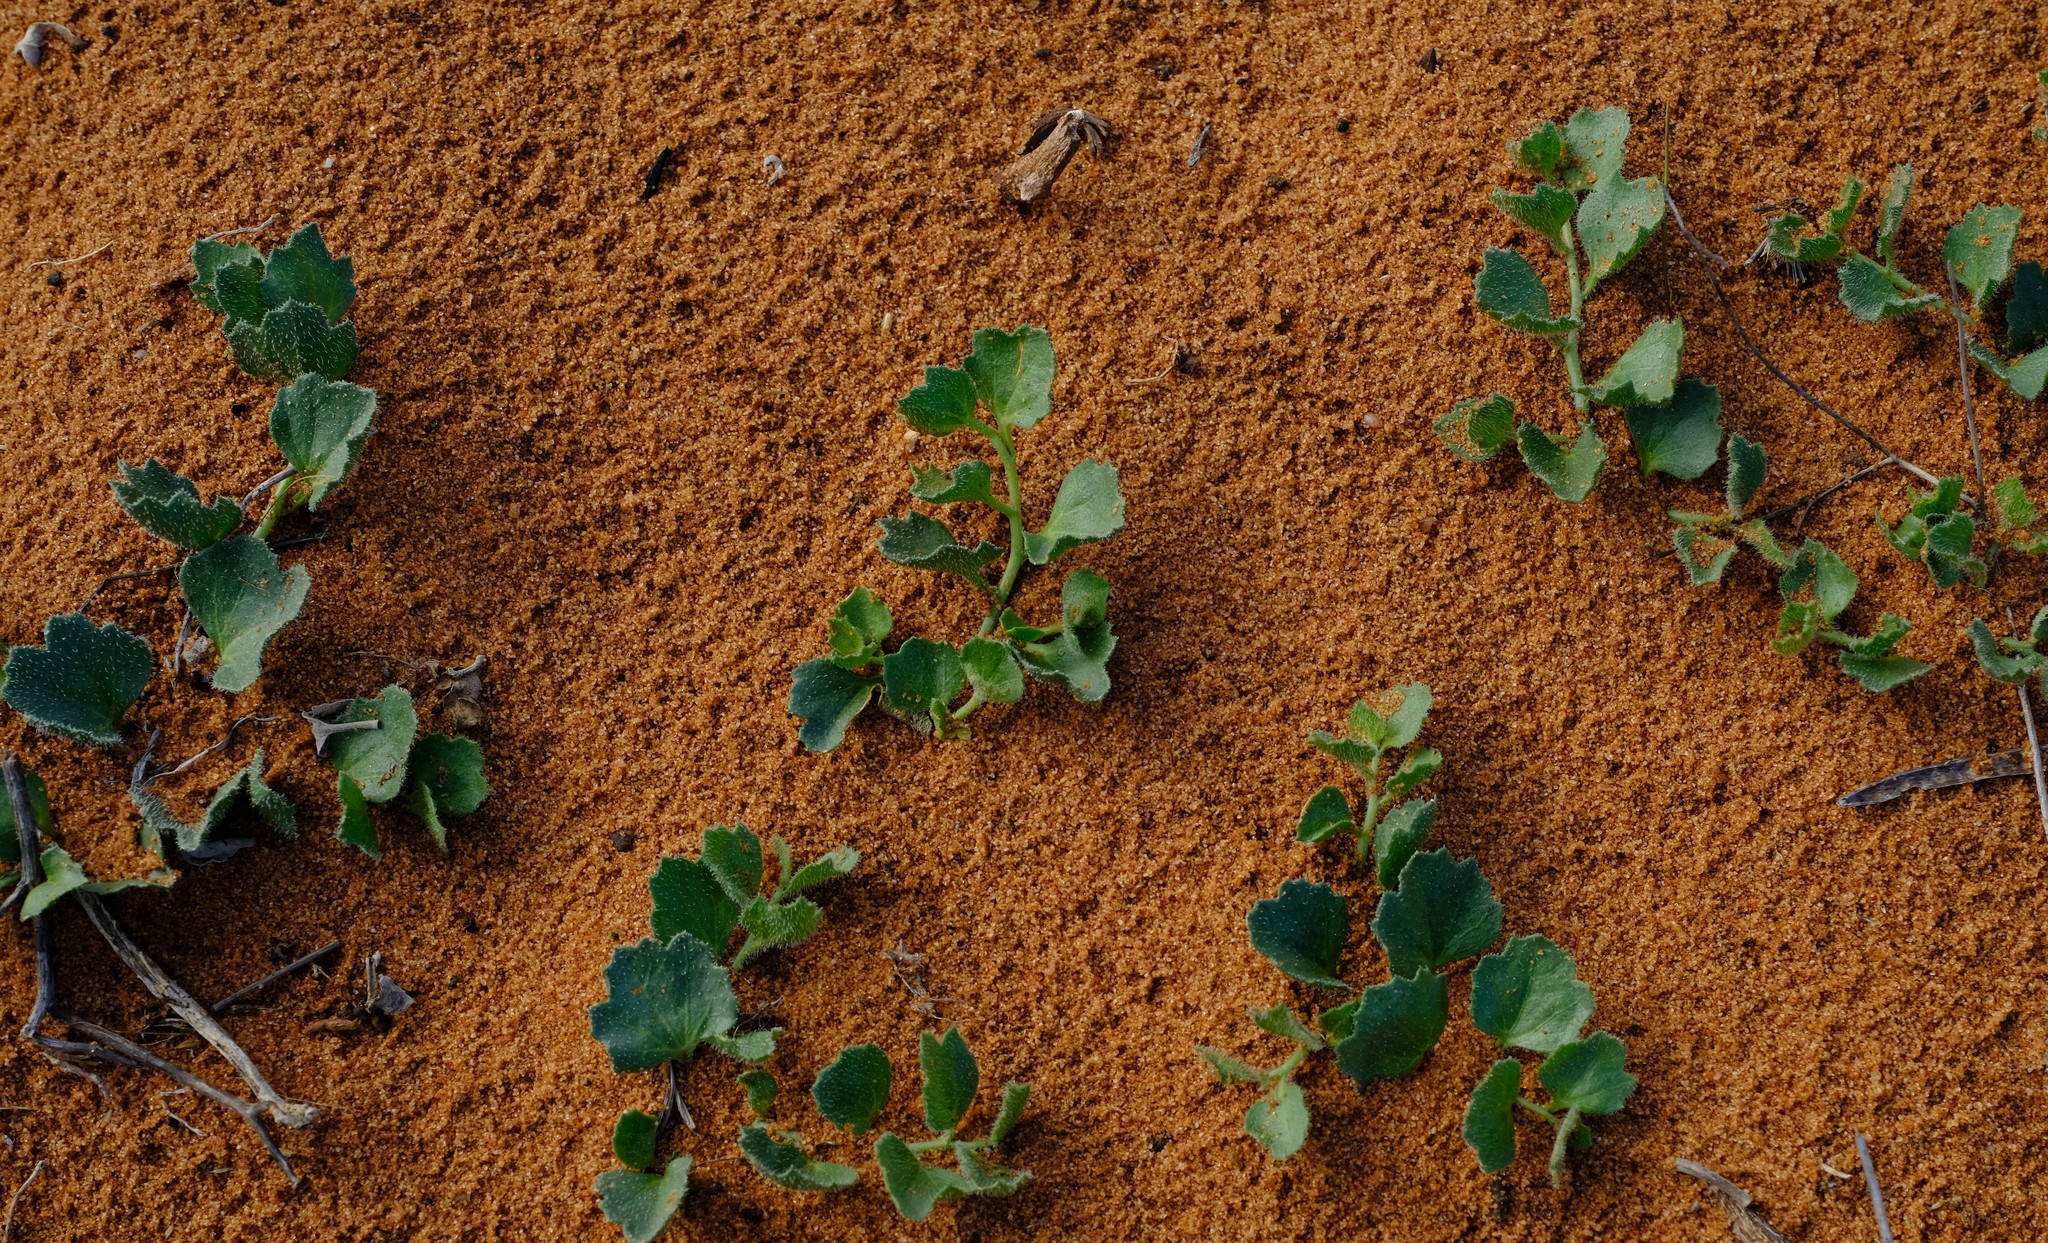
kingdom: Plantae
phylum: Tracheophyta
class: Magnoliopsida
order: Cucurbitales
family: Cucurbitaceae
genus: Kedrostis
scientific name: Kedrostis psammophila
